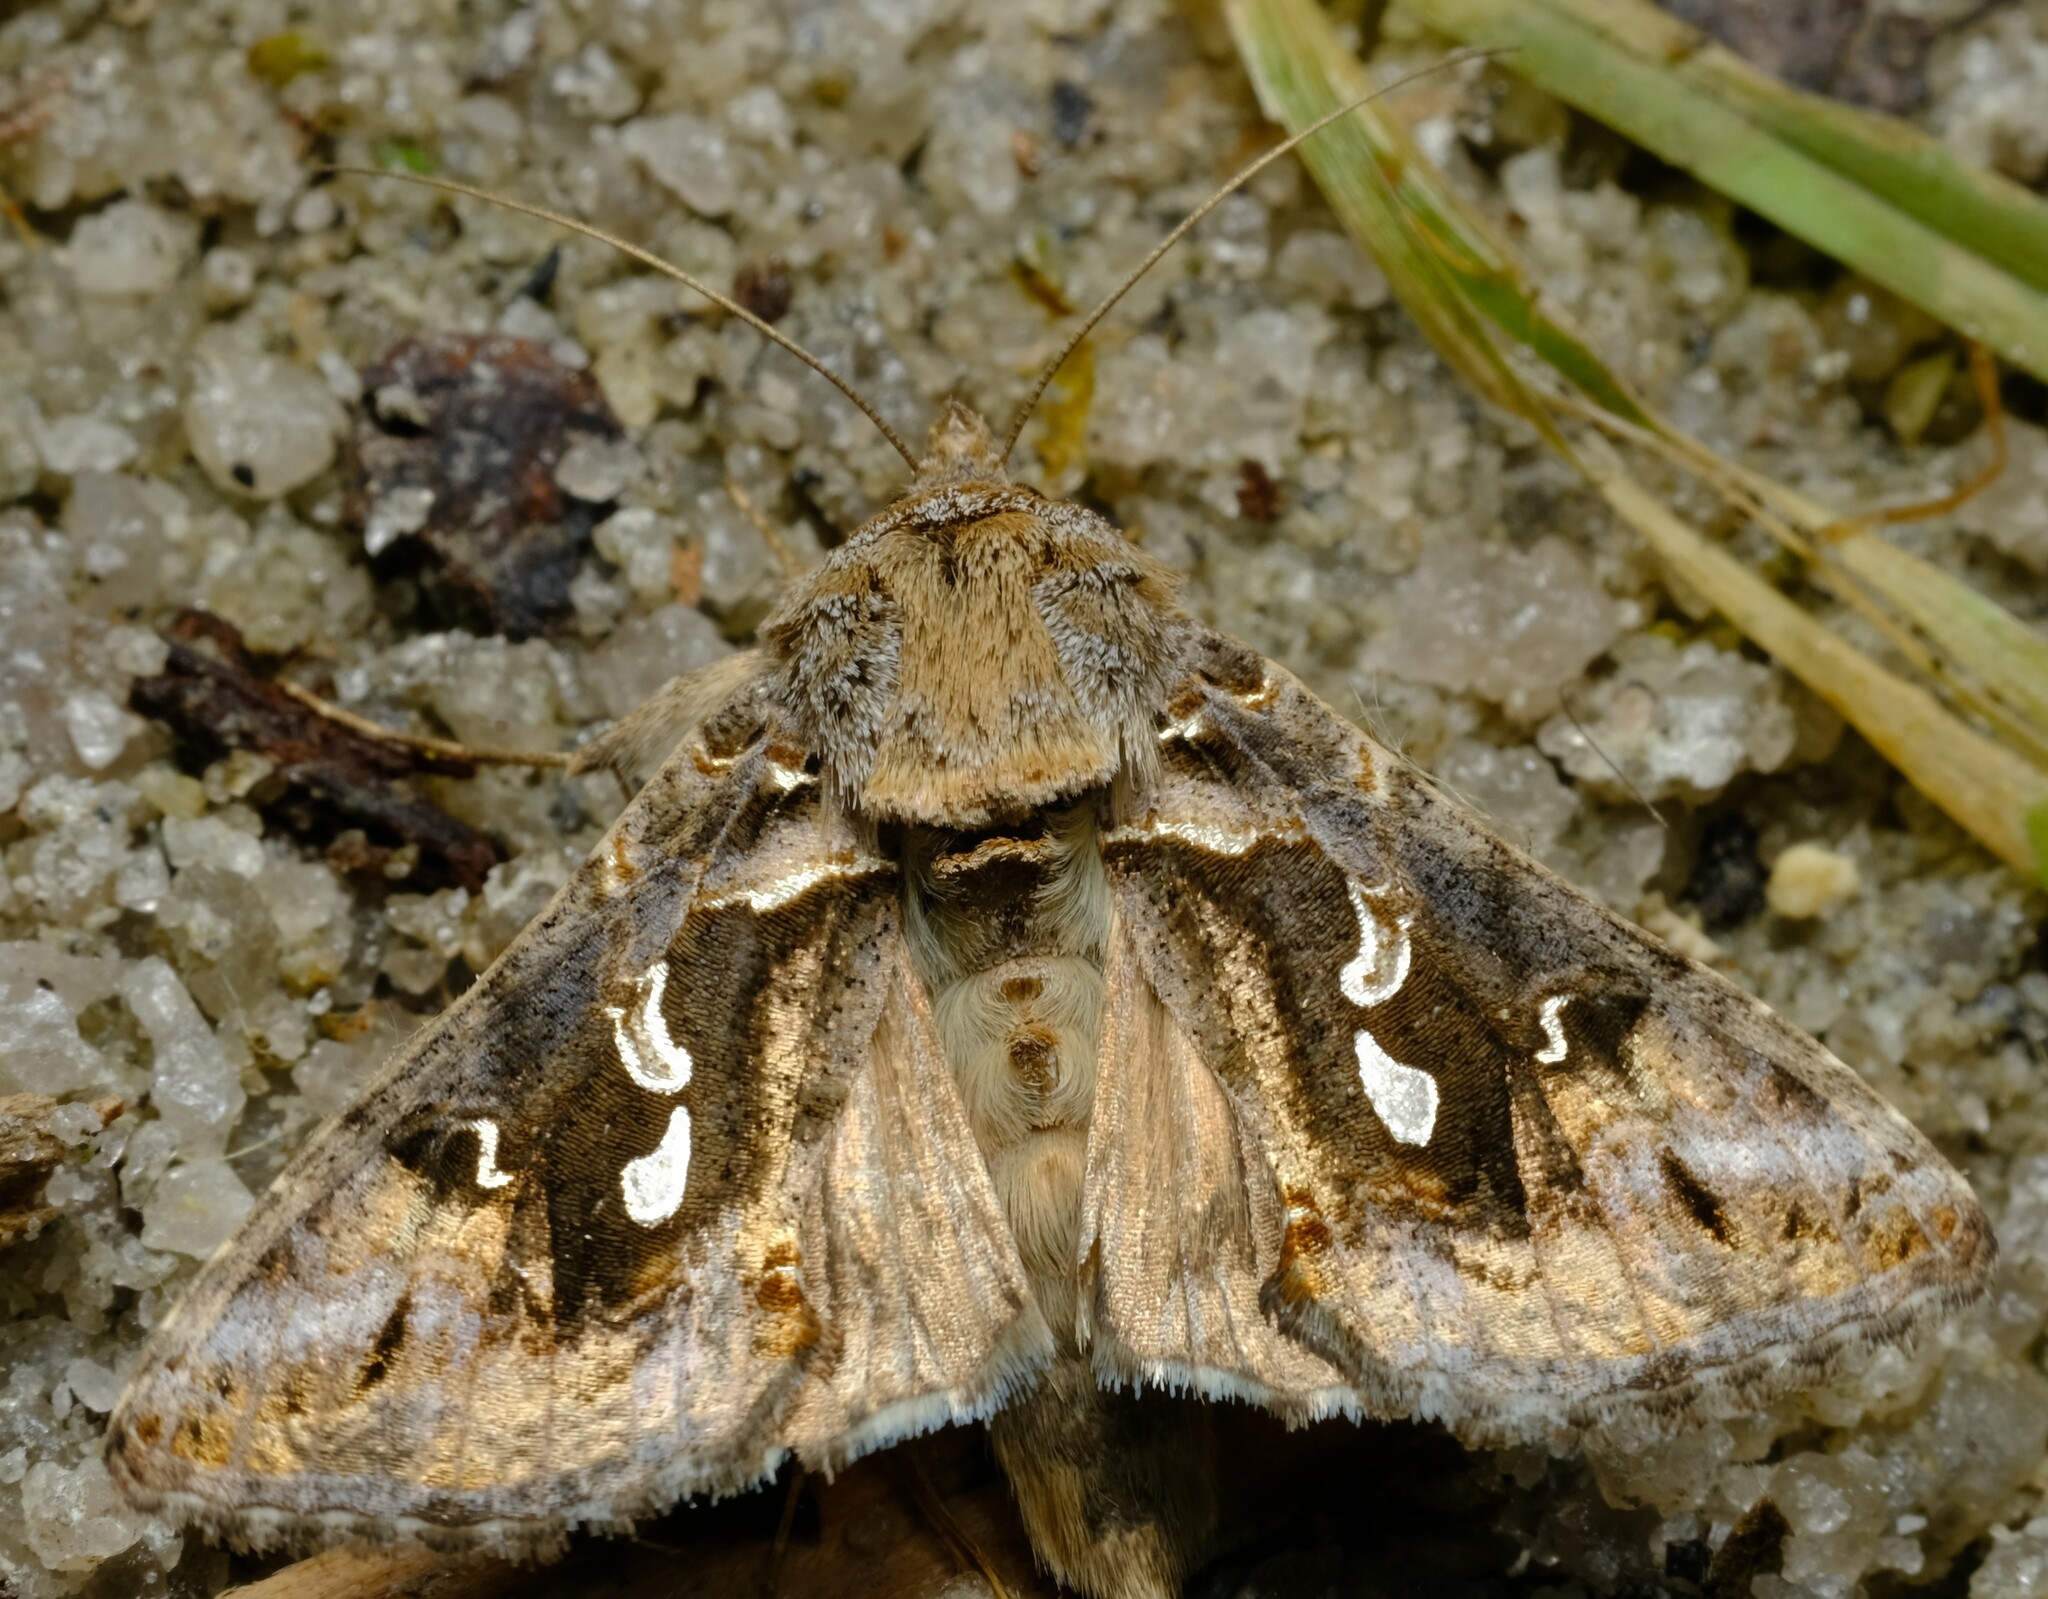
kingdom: Animalia
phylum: Arthropoda
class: Insecta
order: Lepidoptera
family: Noctuidae
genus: Chrysodeixis
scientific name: Chrysodeixis argentifera
